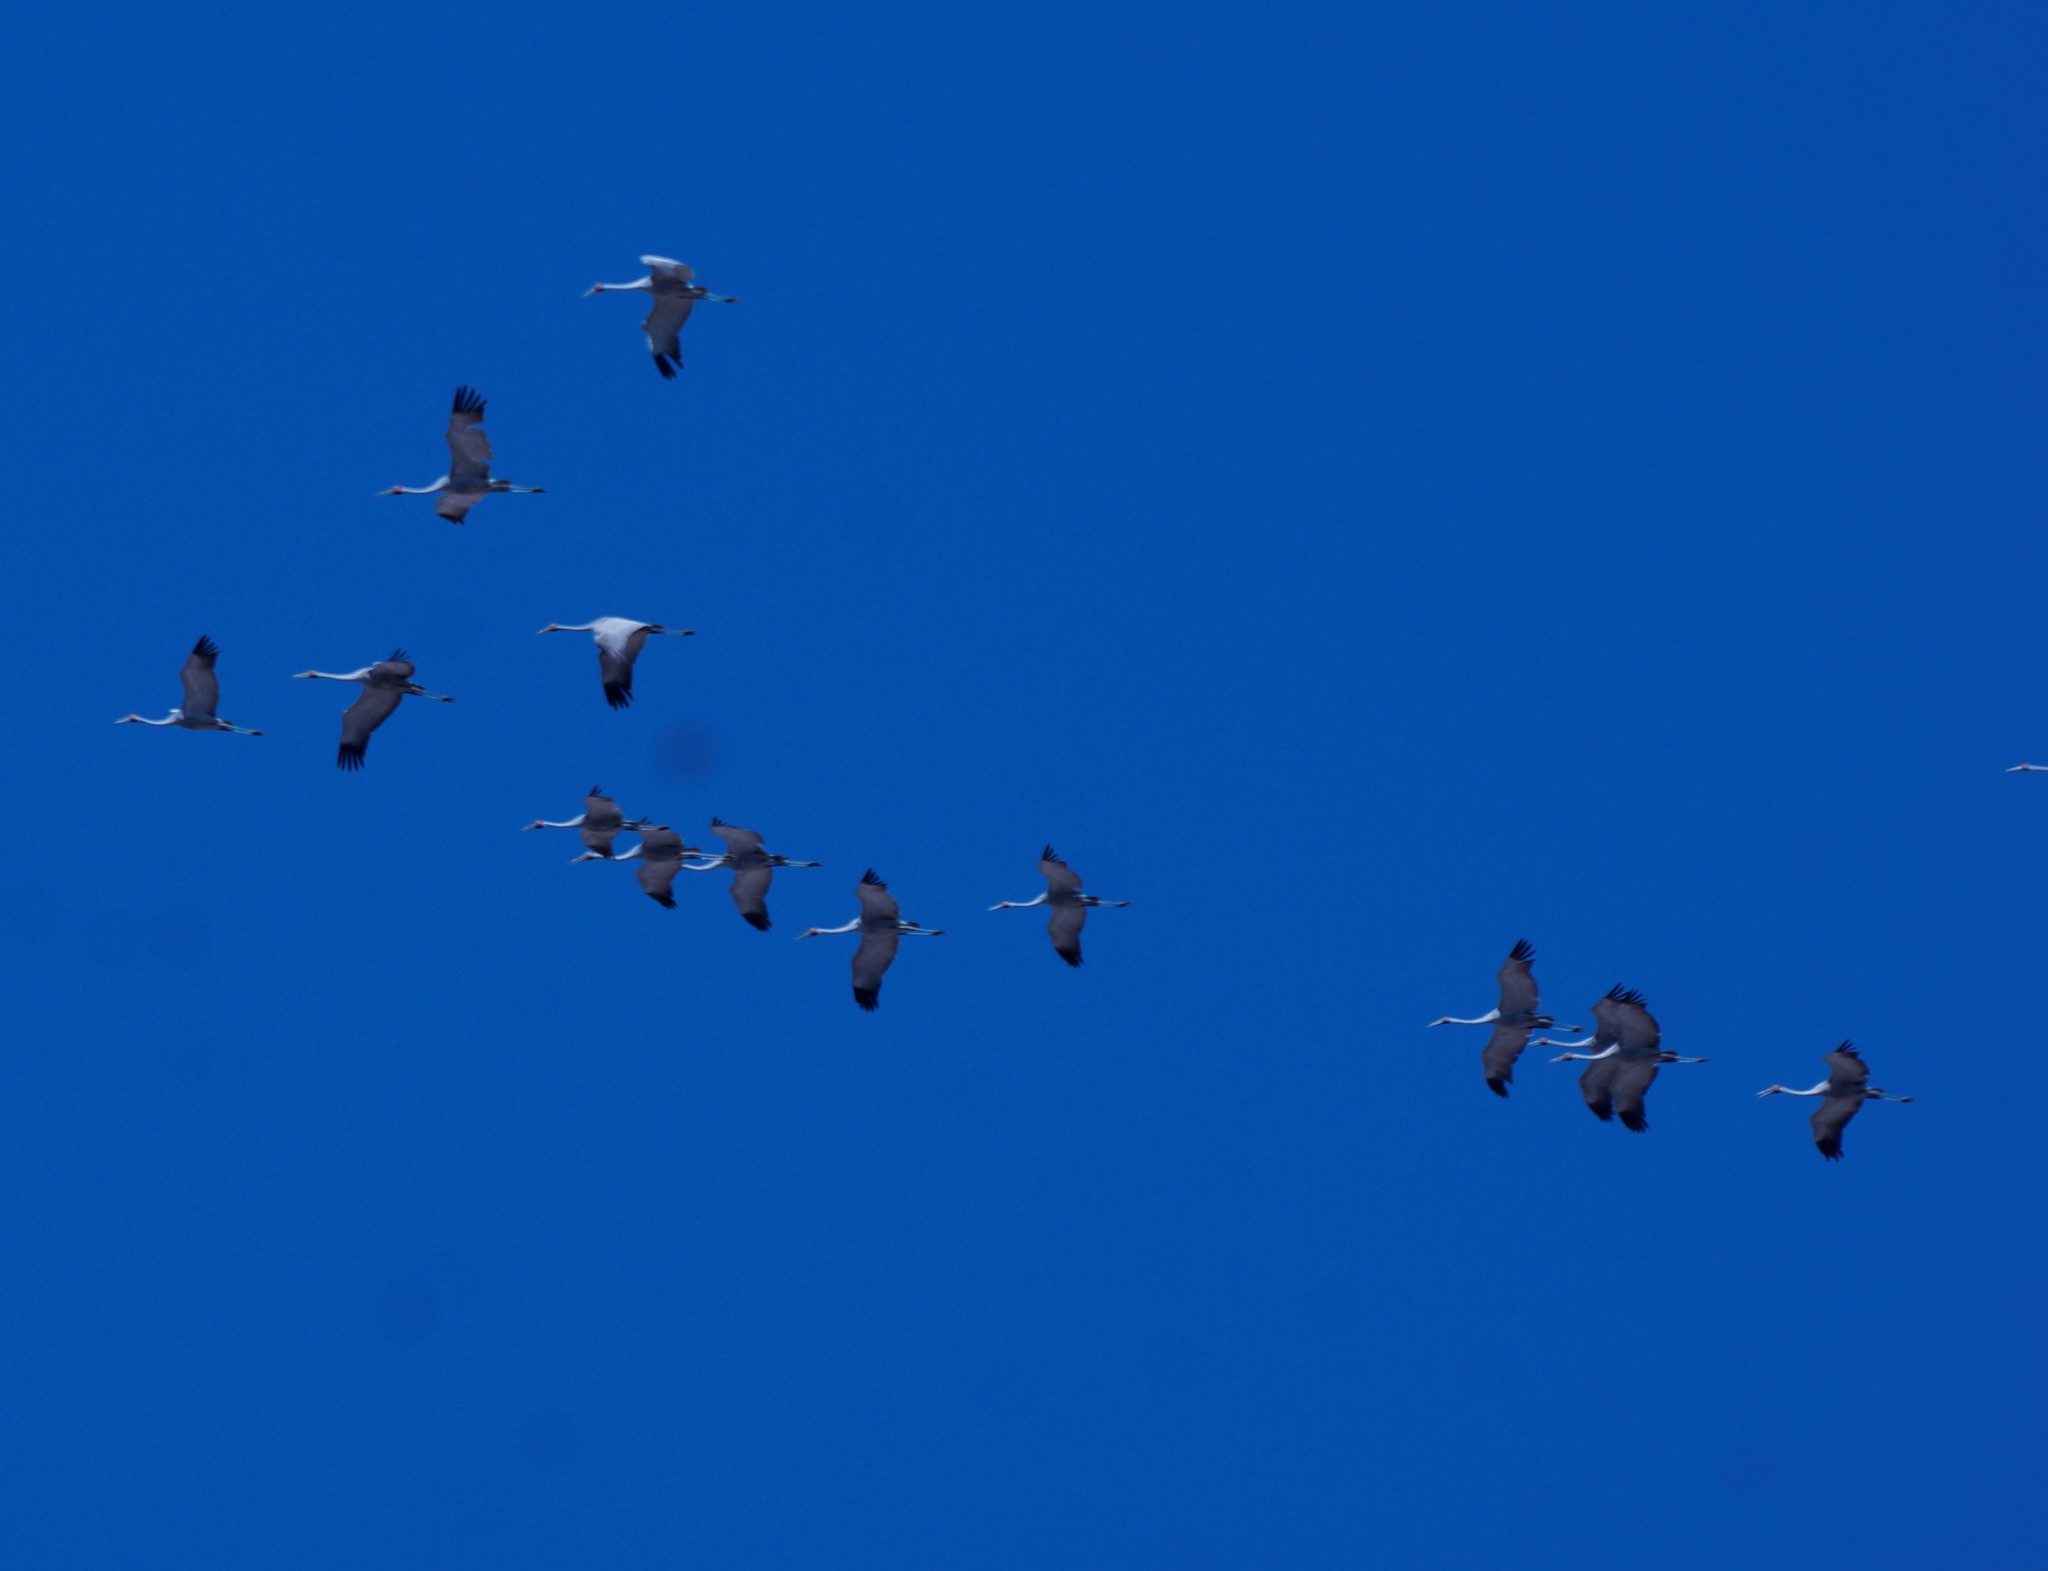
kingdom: Animalia
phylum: Chordata
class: Aves
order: Gruiformes
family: Gruidae
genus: Grus
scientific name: Grus rubicunda
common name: Brolga
